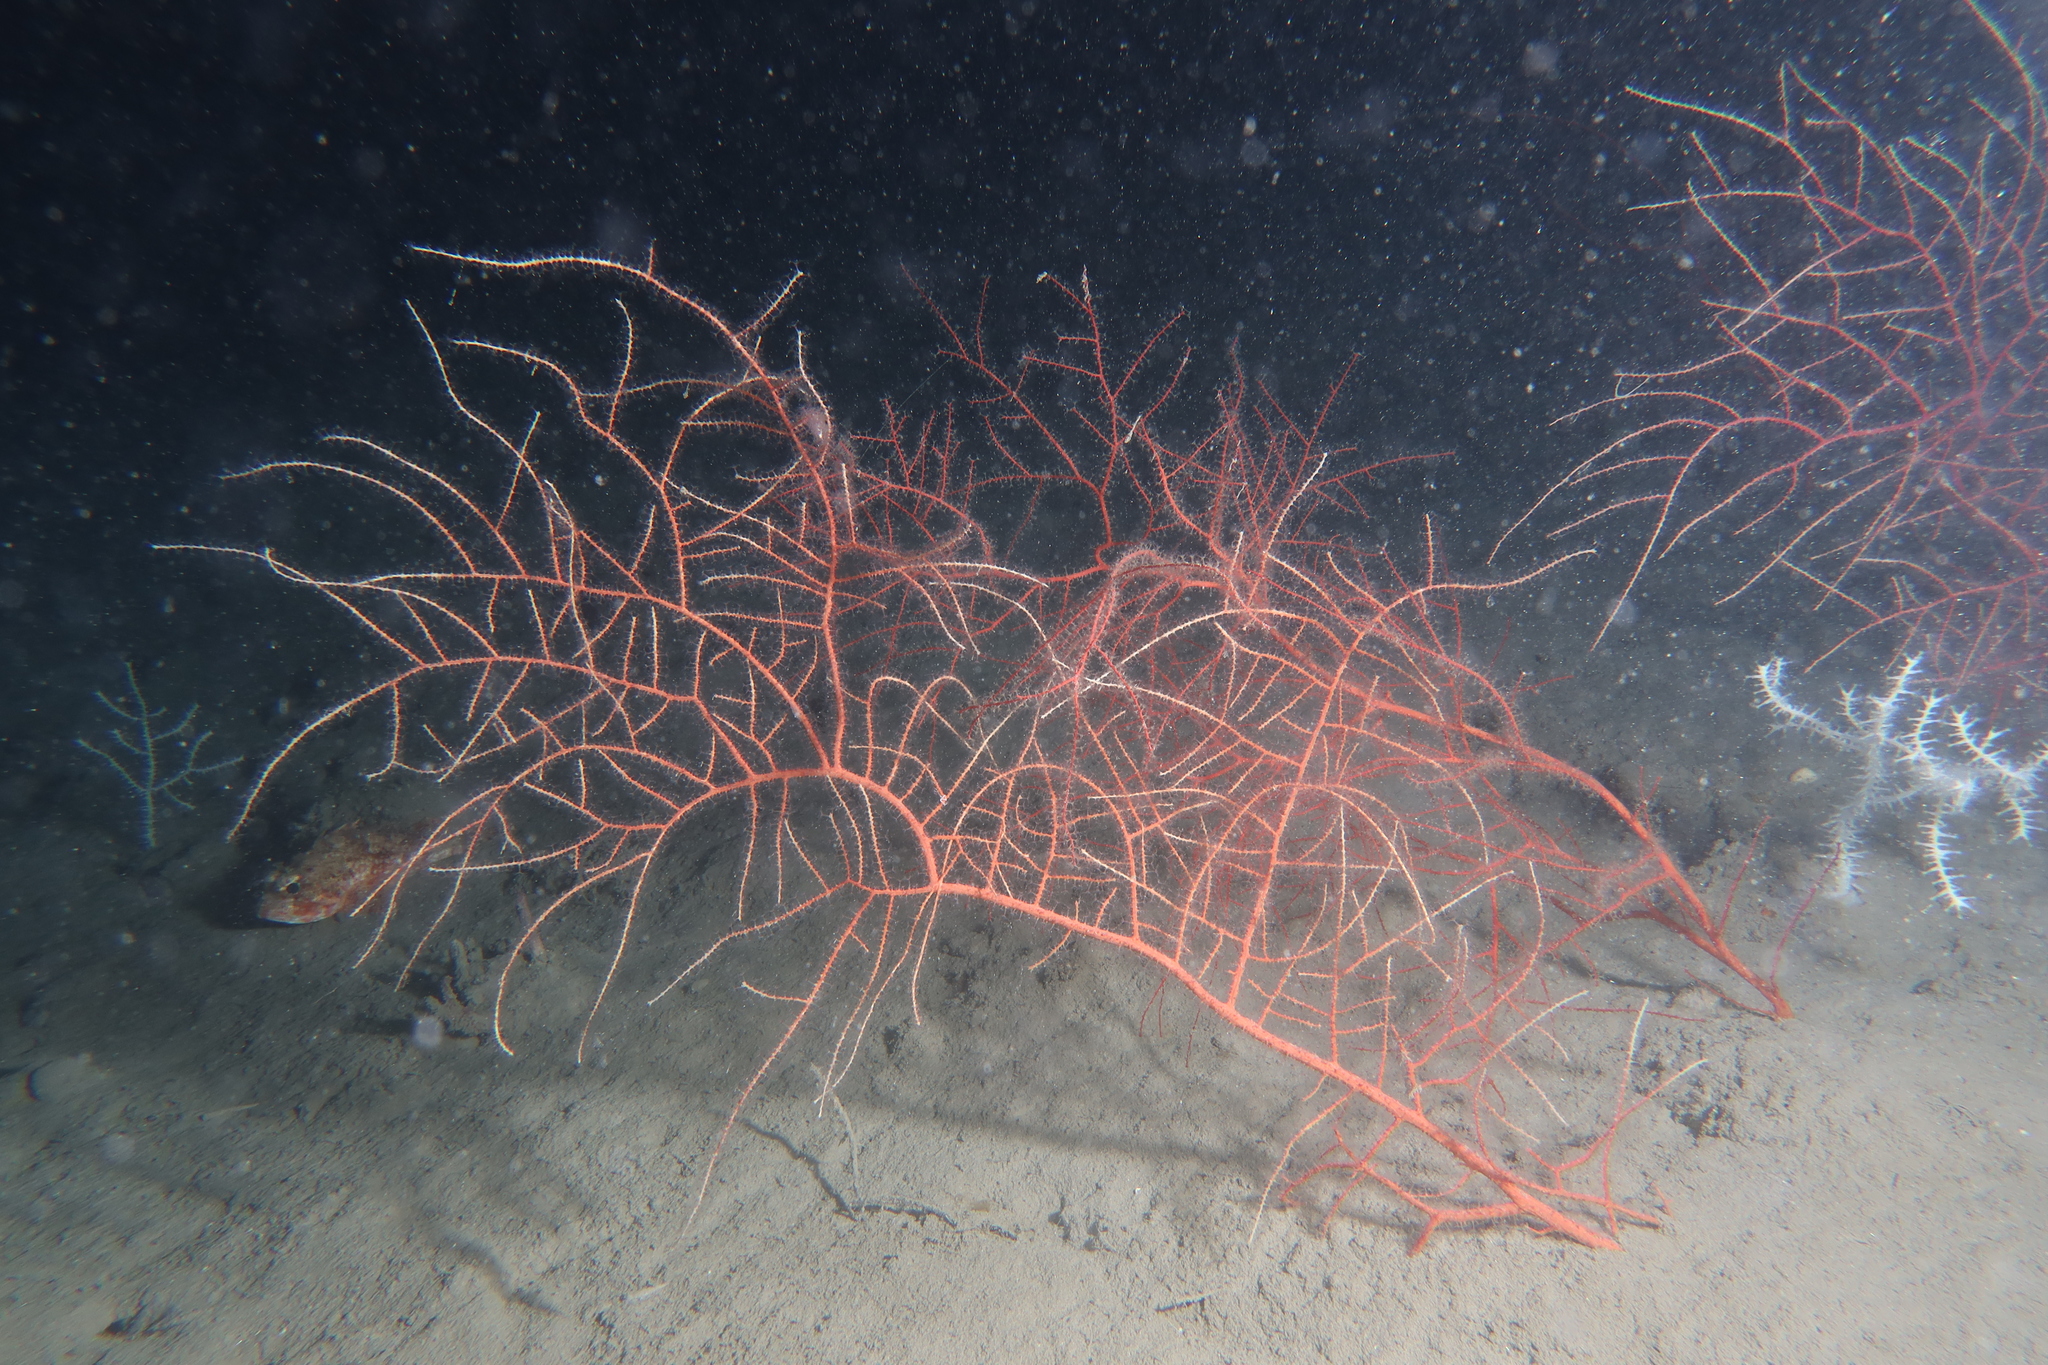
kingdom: Animalia
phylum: Cnidaria
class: Anthozoa
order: Malacalcyonacea
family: Gorgoniidae
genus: Leptogorgia
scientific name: Leptogorgia sarmentosa
